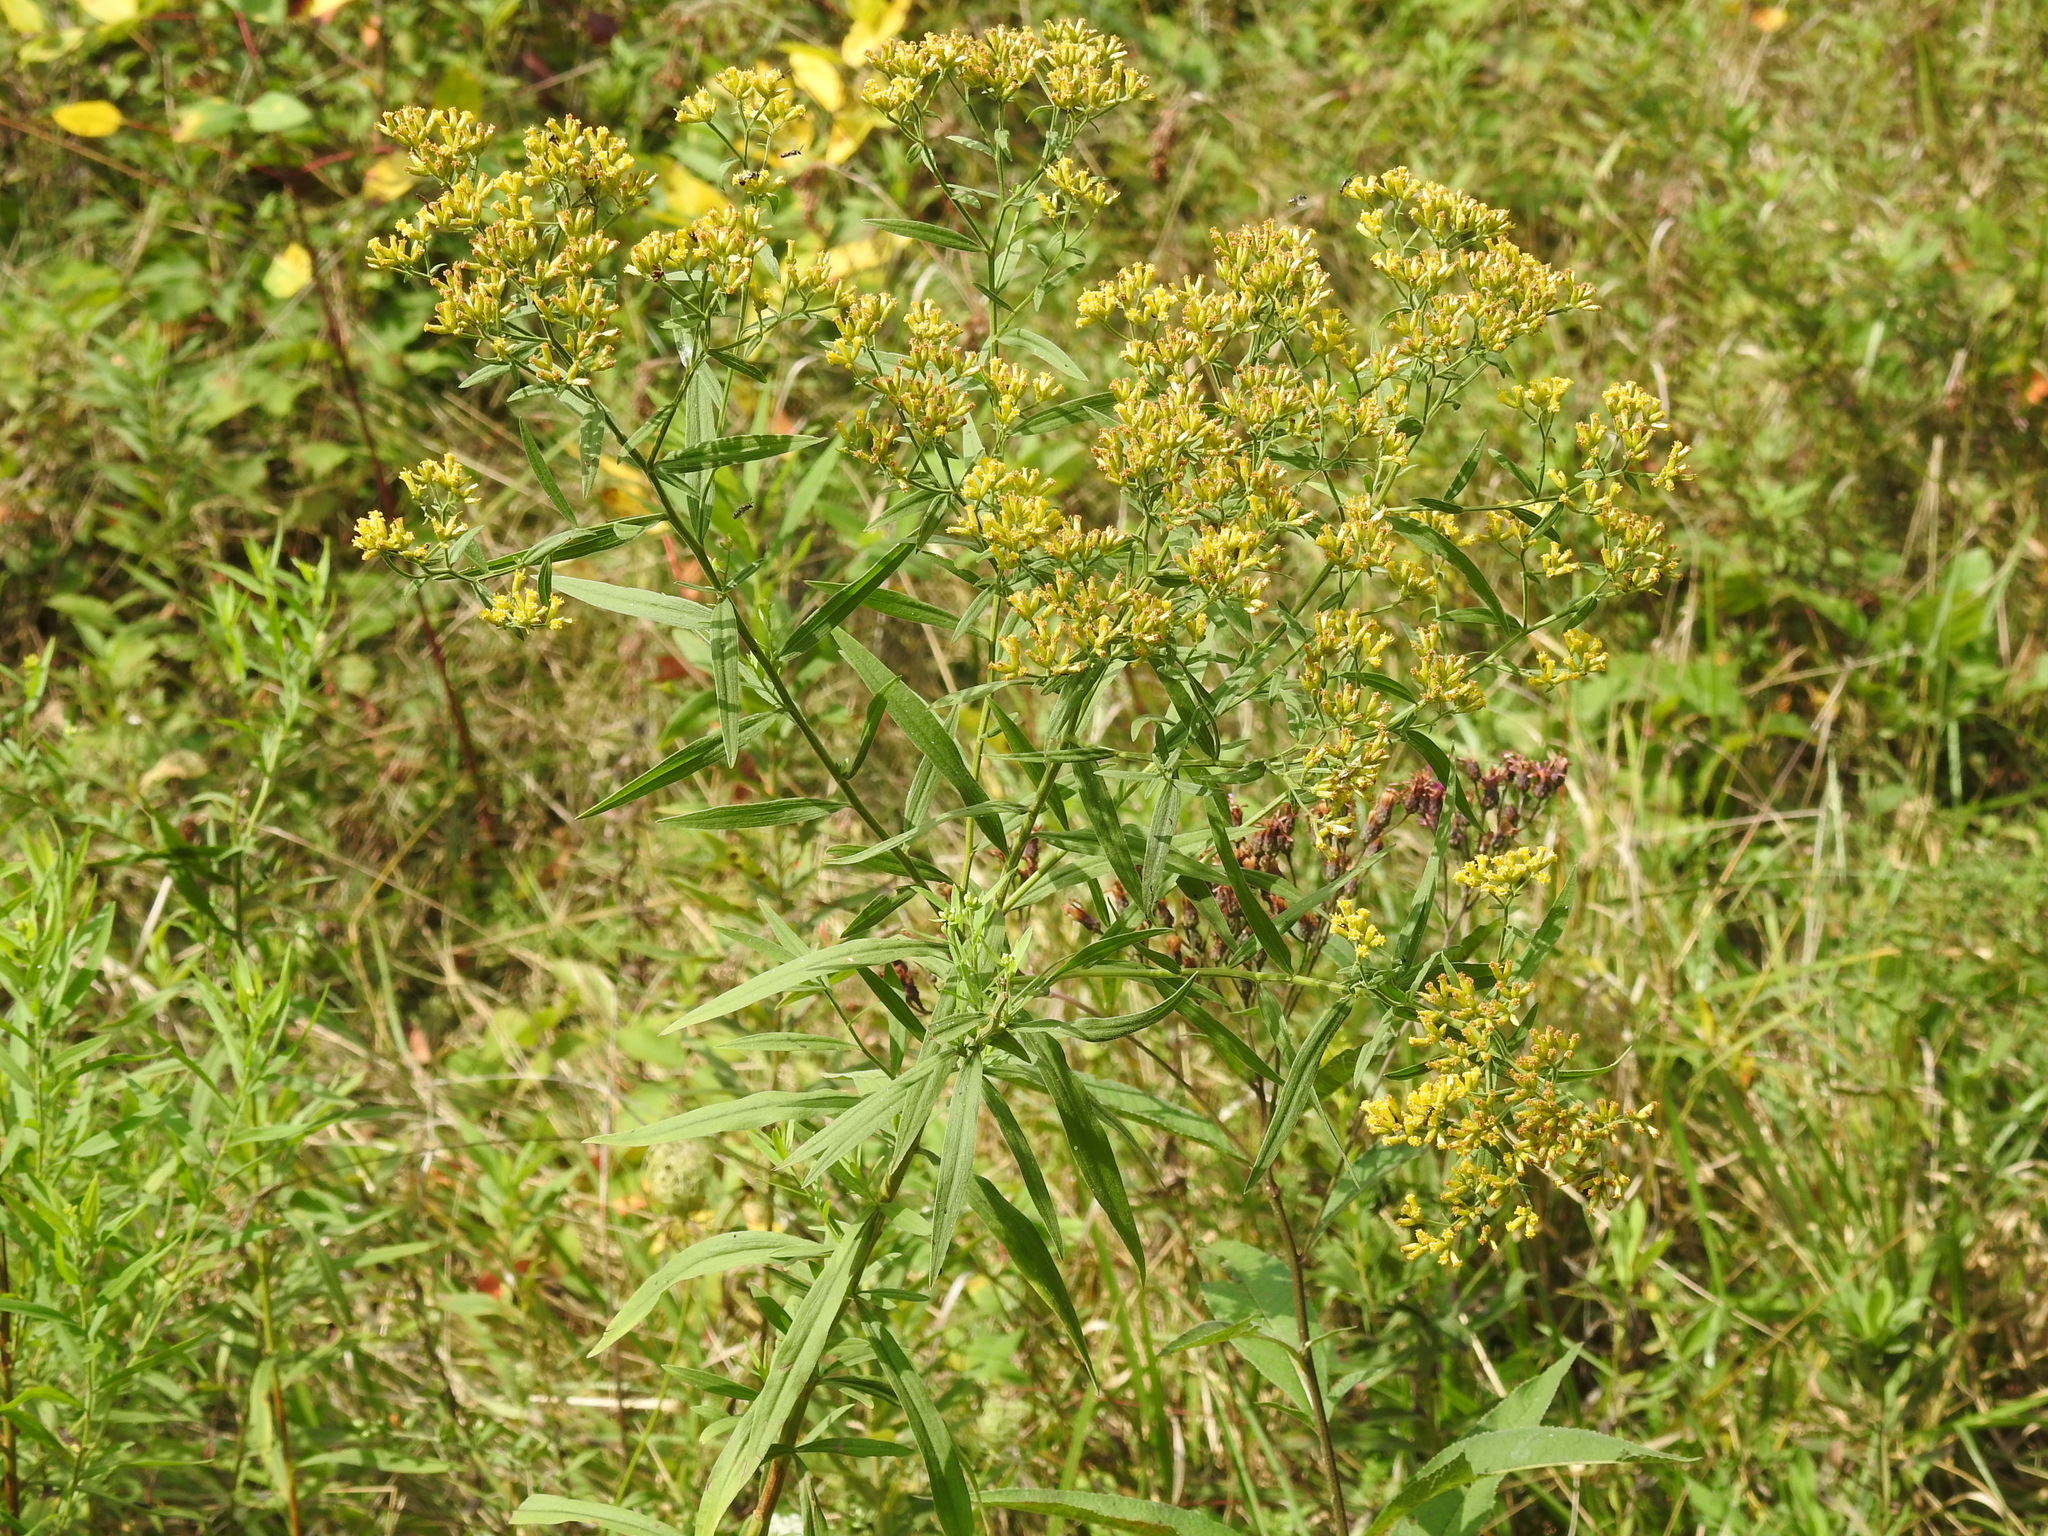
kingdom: Plantae
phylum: Tracheophyta
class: Magnoliopsida
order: Asterales
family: Asteraceae
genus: Euthamia
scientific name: Euthamia graminifolia
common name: Common goldentop
